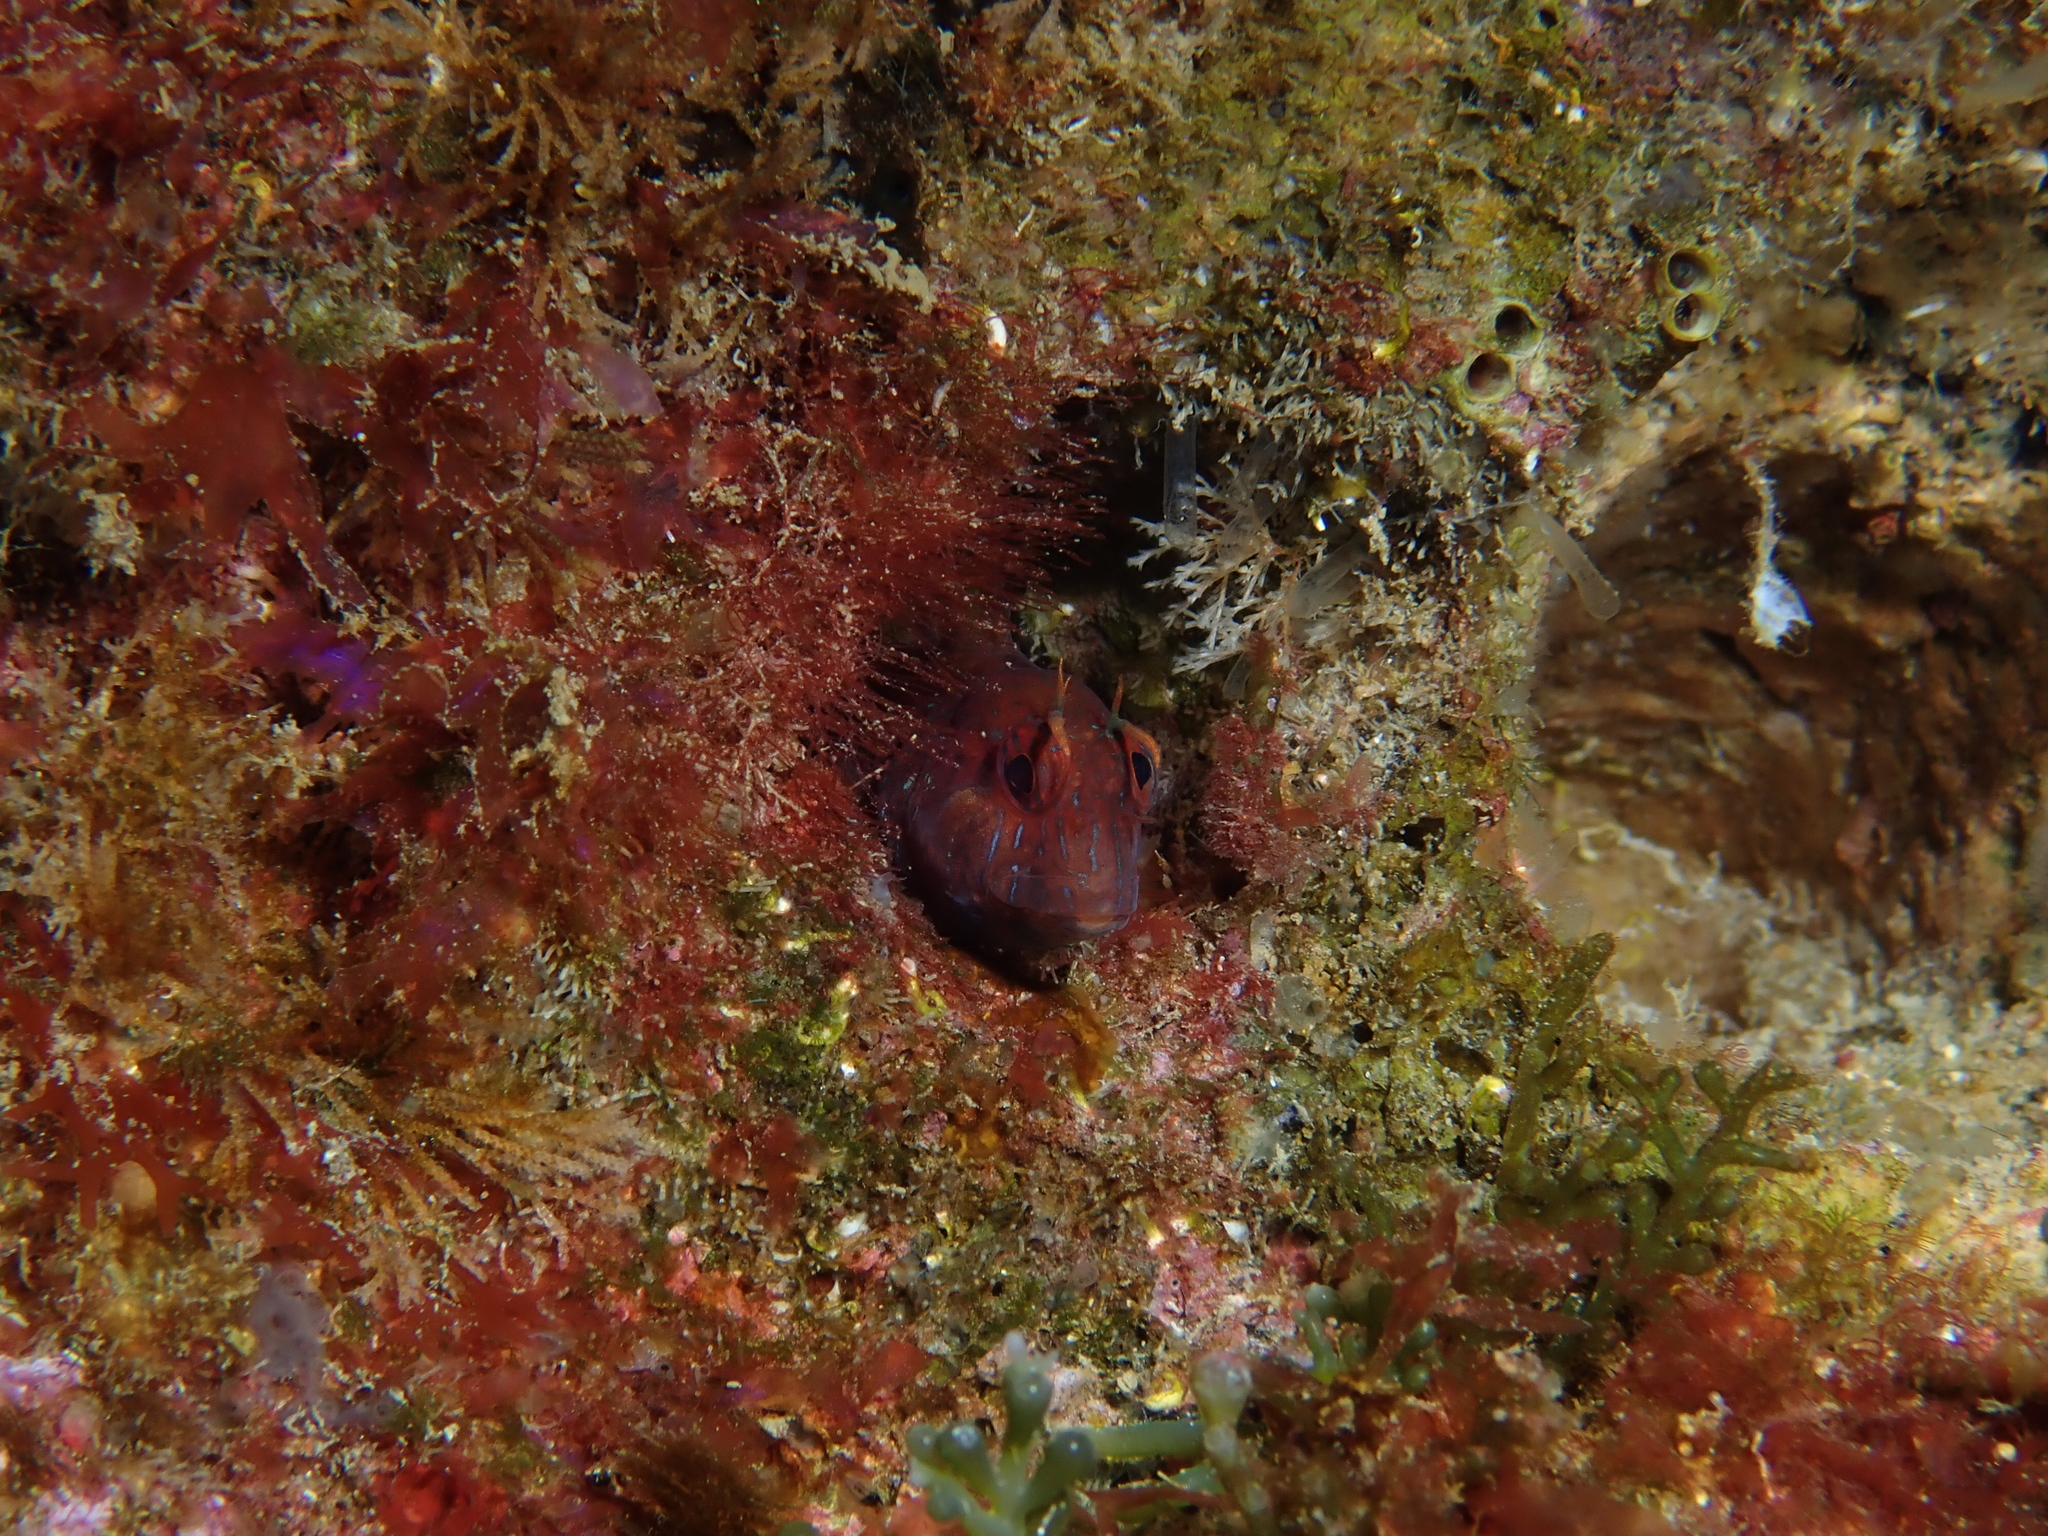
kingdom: Animalia
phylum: Chordata
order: Perciformes
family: Blenniidae
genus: Parablennius
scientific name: Parablennius rouxi
